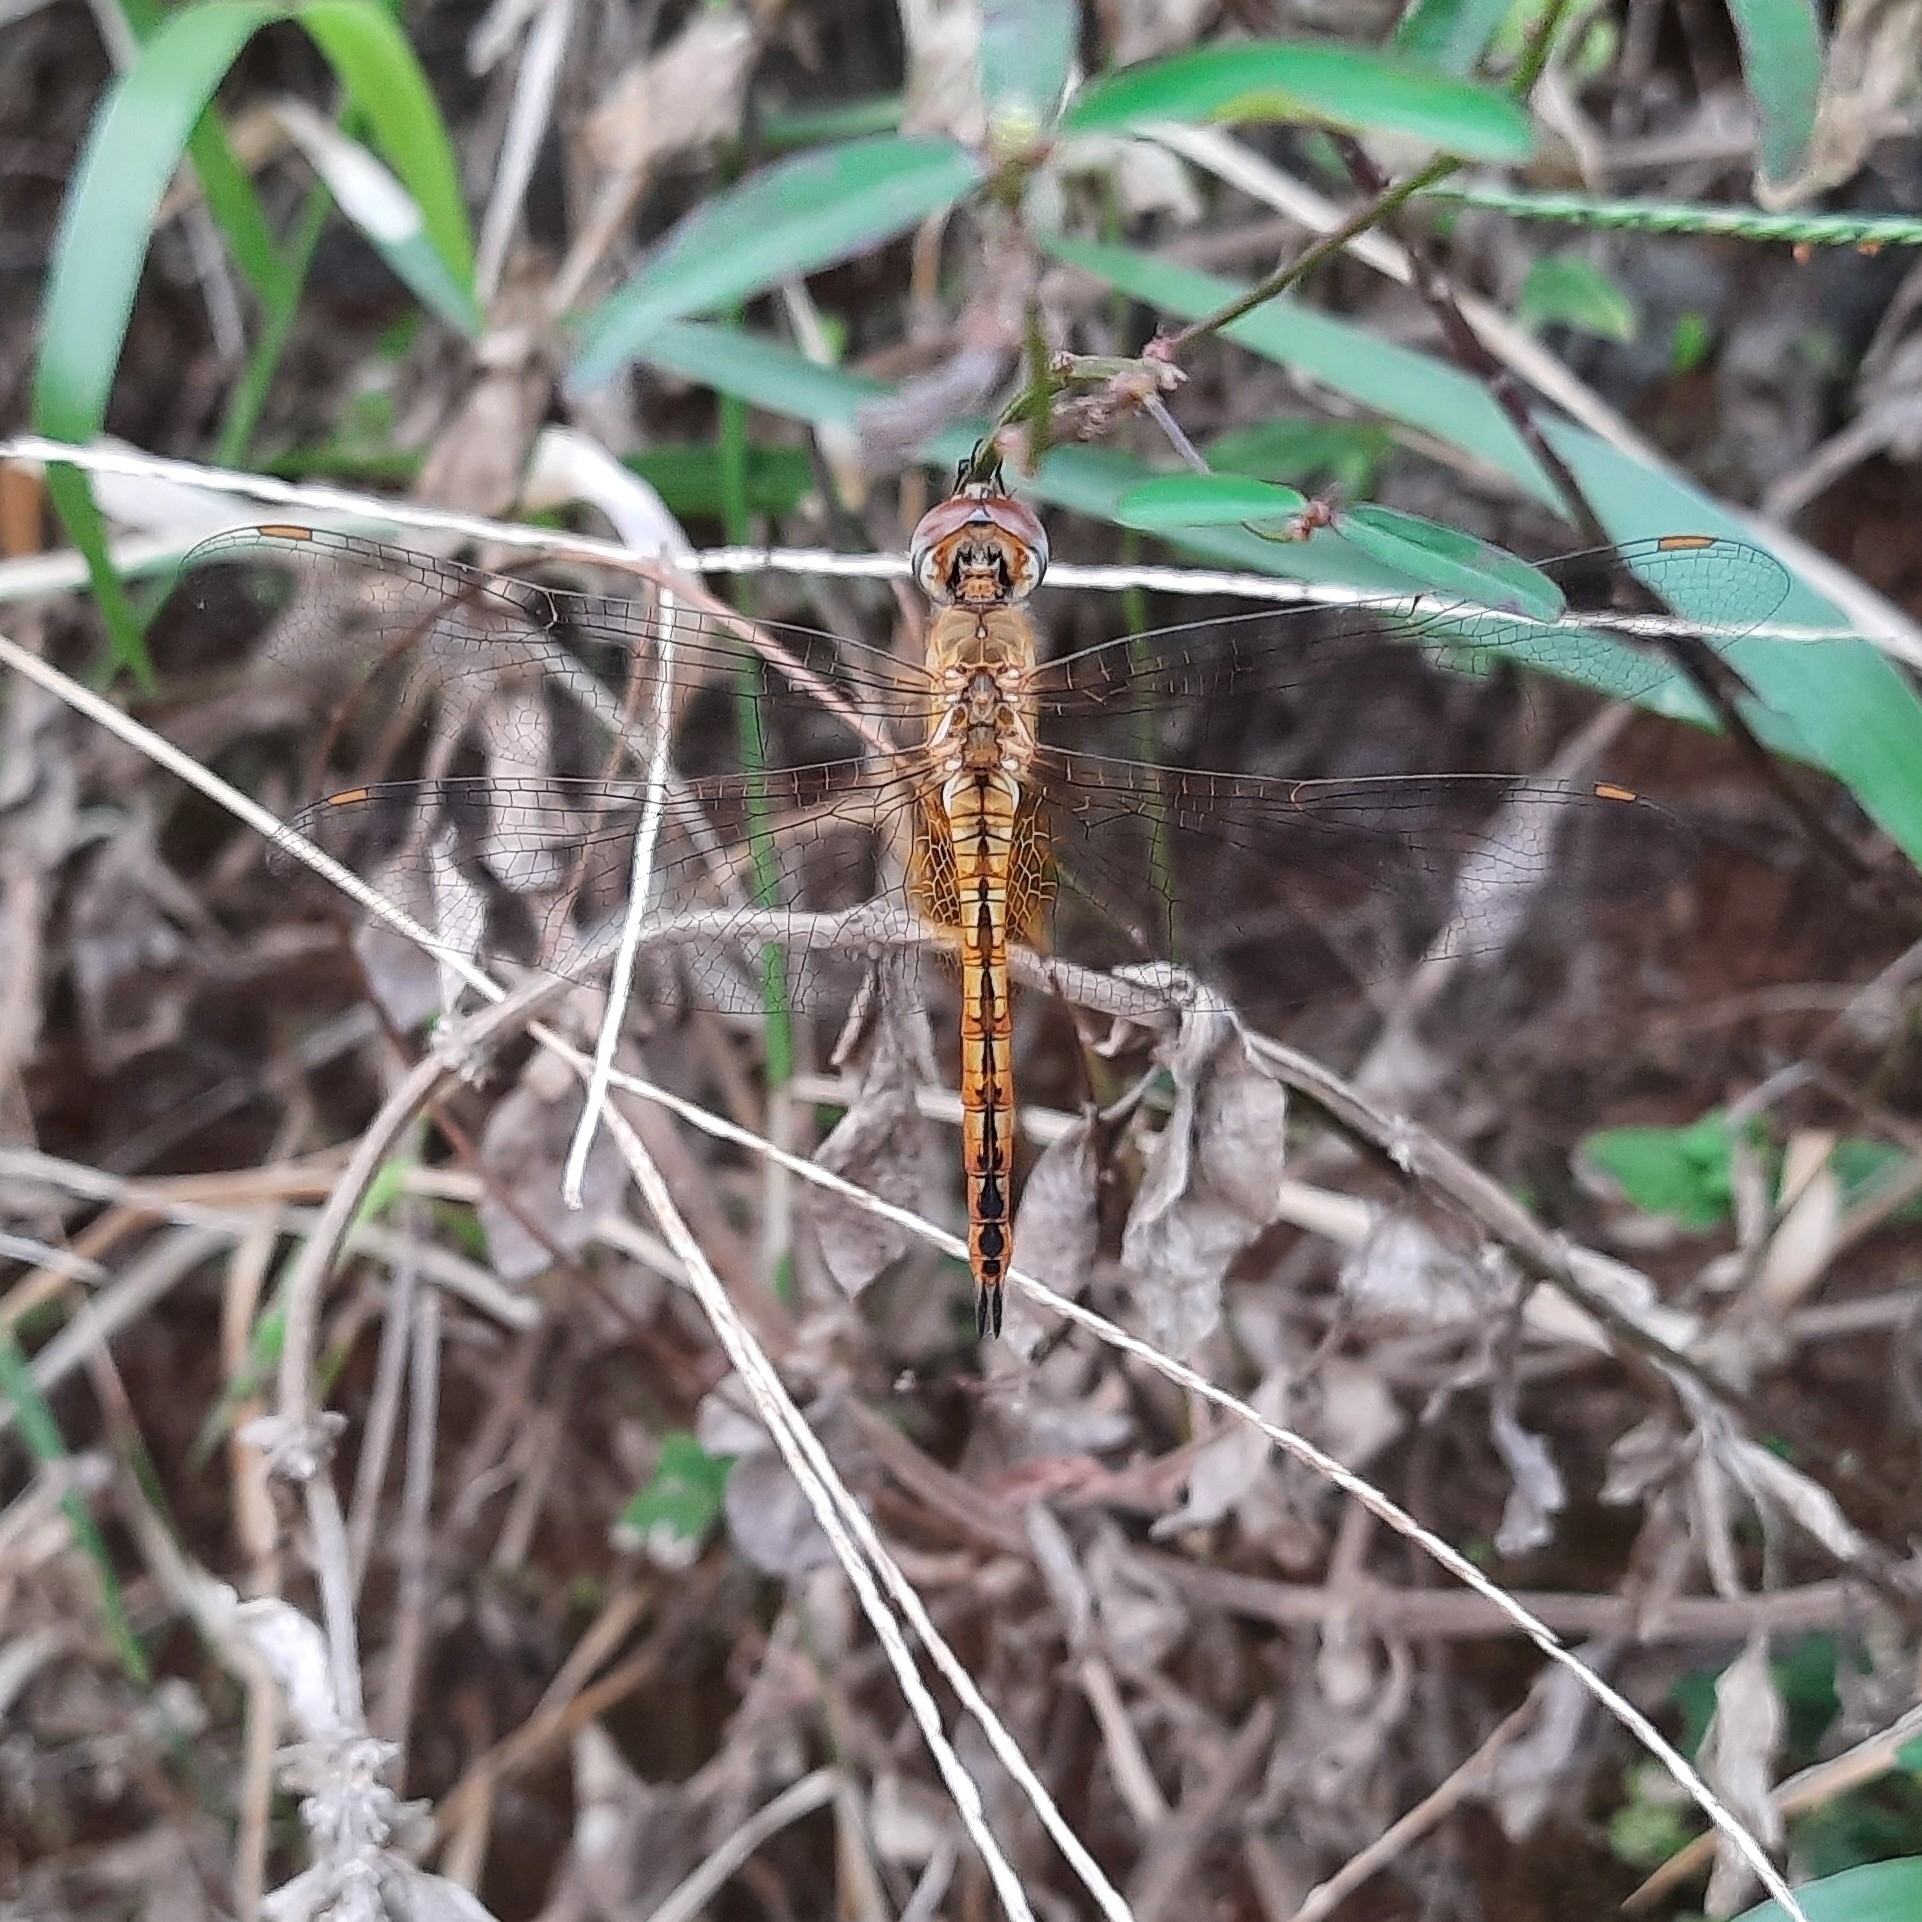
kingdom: Animalia
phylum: Arthropoda
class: Insecta
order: Odonata
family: Libellulidae
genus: Pantala
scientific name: Pantala flavescens
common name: Wandering glider
